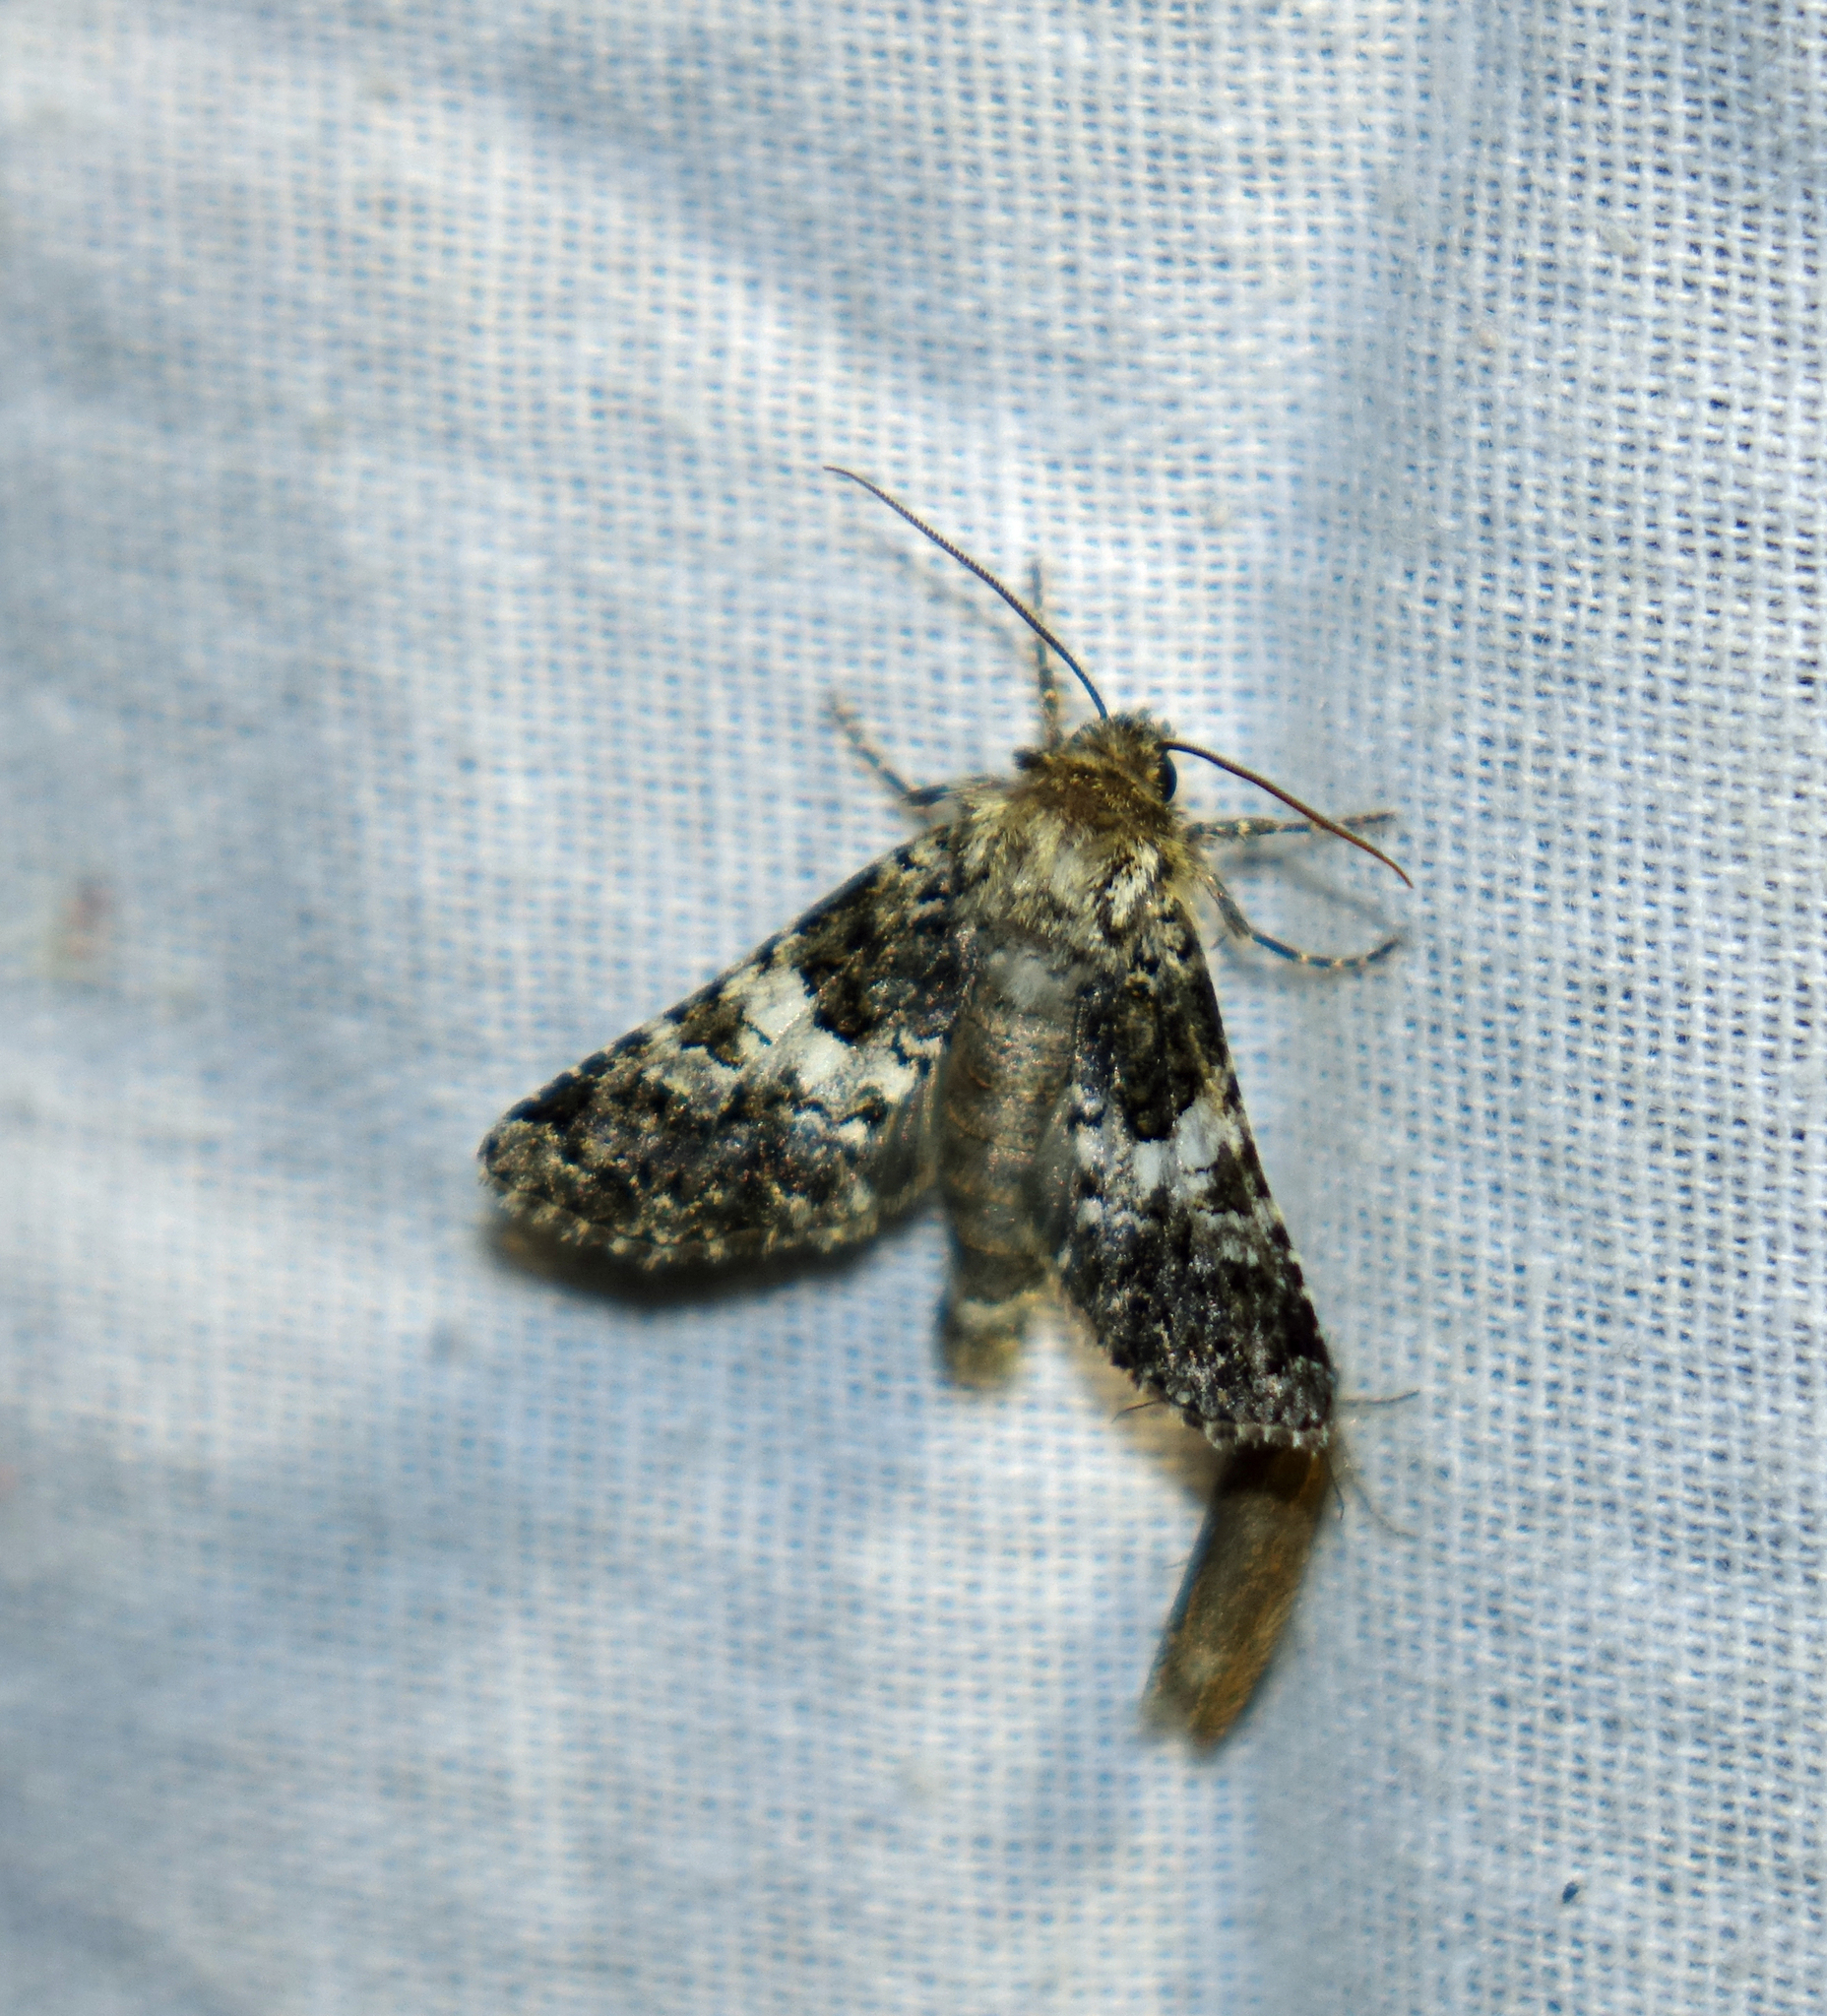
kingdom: Animalia
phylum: Arthropoda
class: Insecta
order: Lepidoptera
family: Noctuidae
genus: Hadena
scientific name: Hadena compta
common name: Varied coronet
